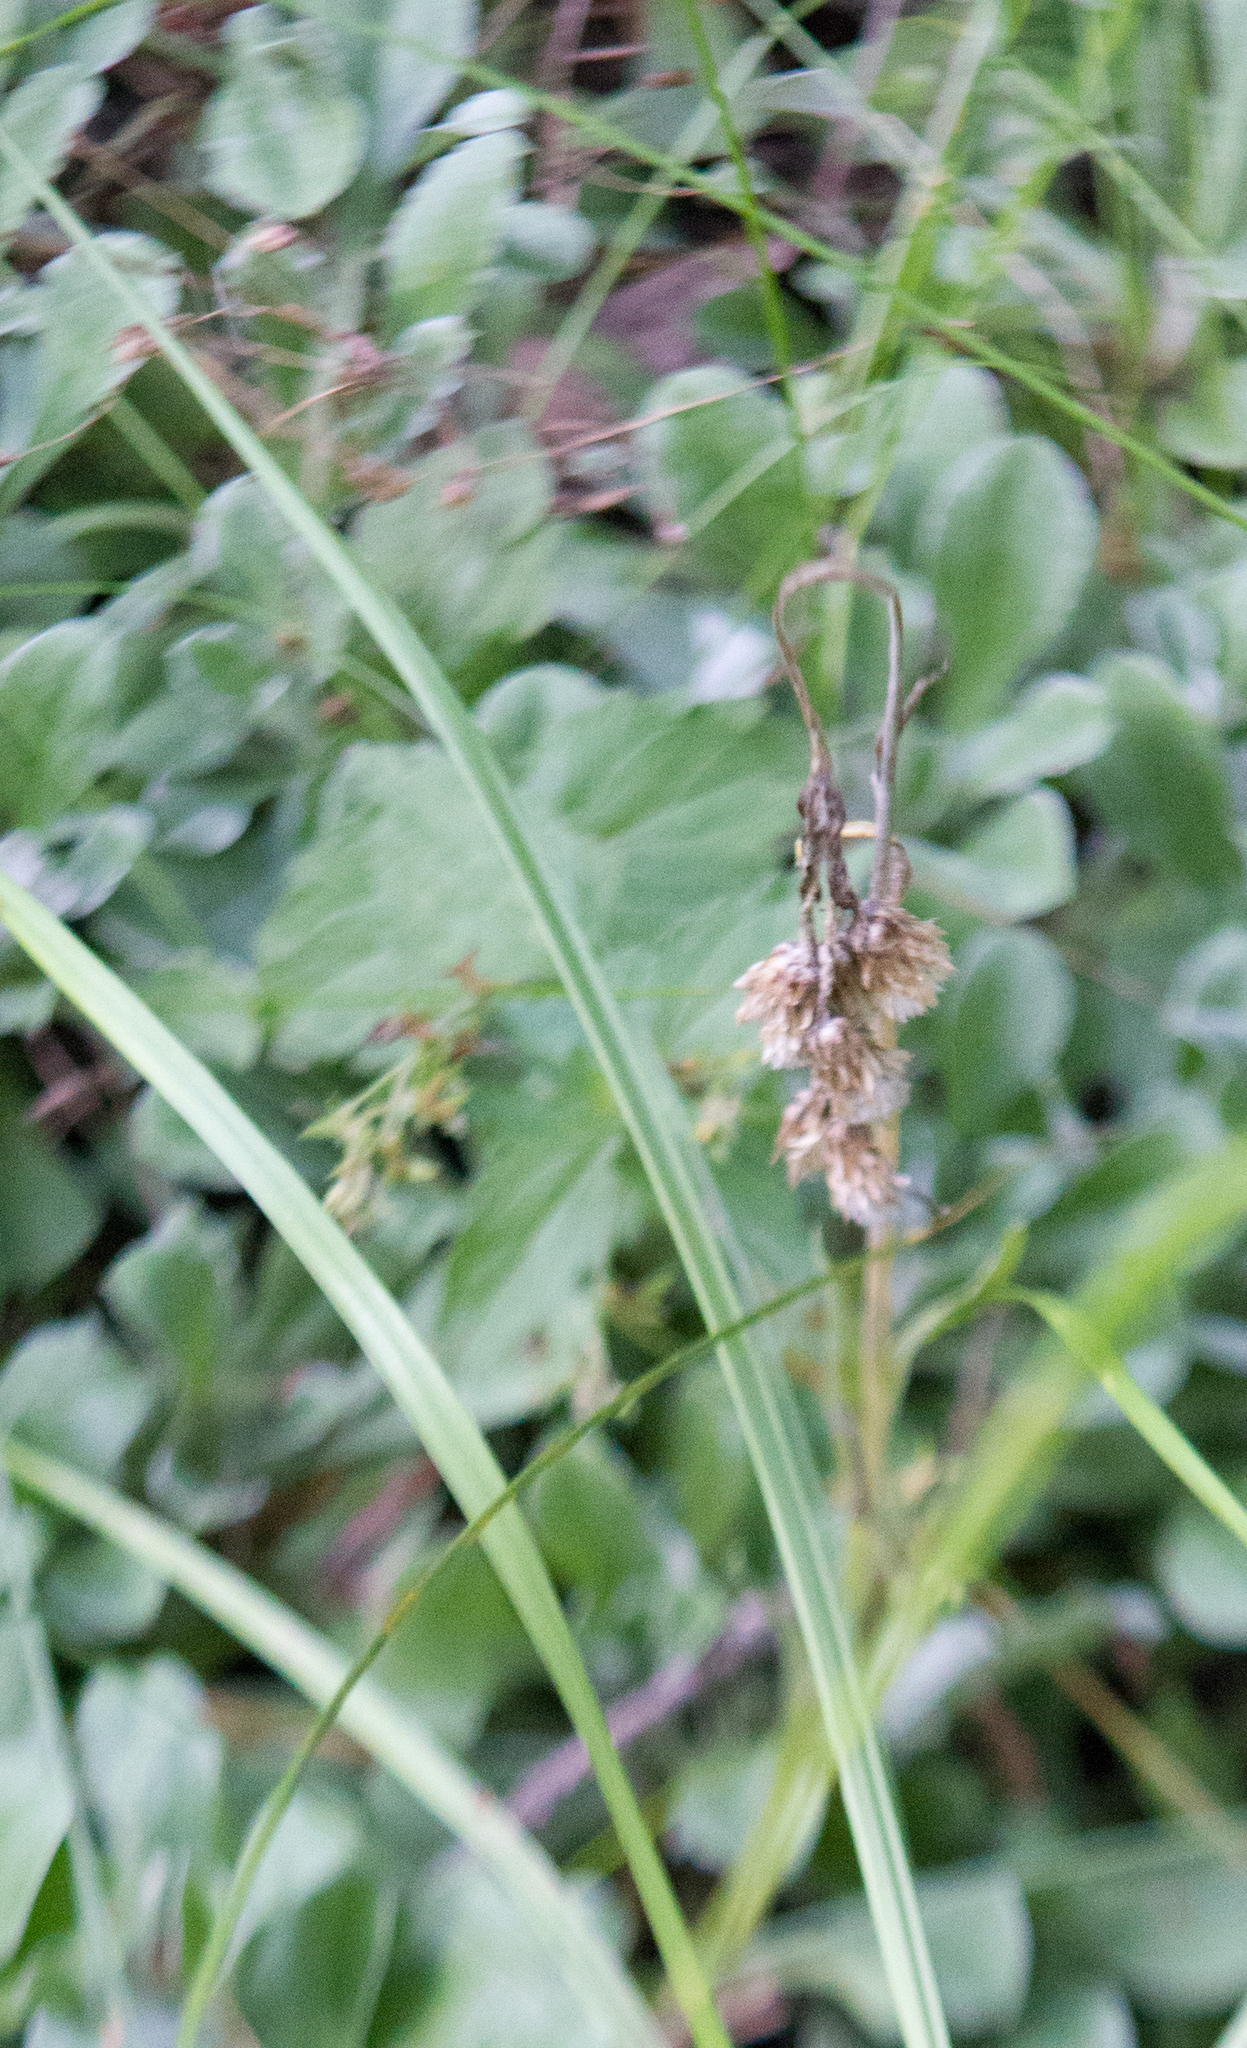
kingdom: Plantae
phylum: Tracheophyta
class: Magnoliopsida
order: Asterales
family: Asteraceae
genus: Antennaria
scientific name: Antennaria dioica
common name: Mountain everlasting
